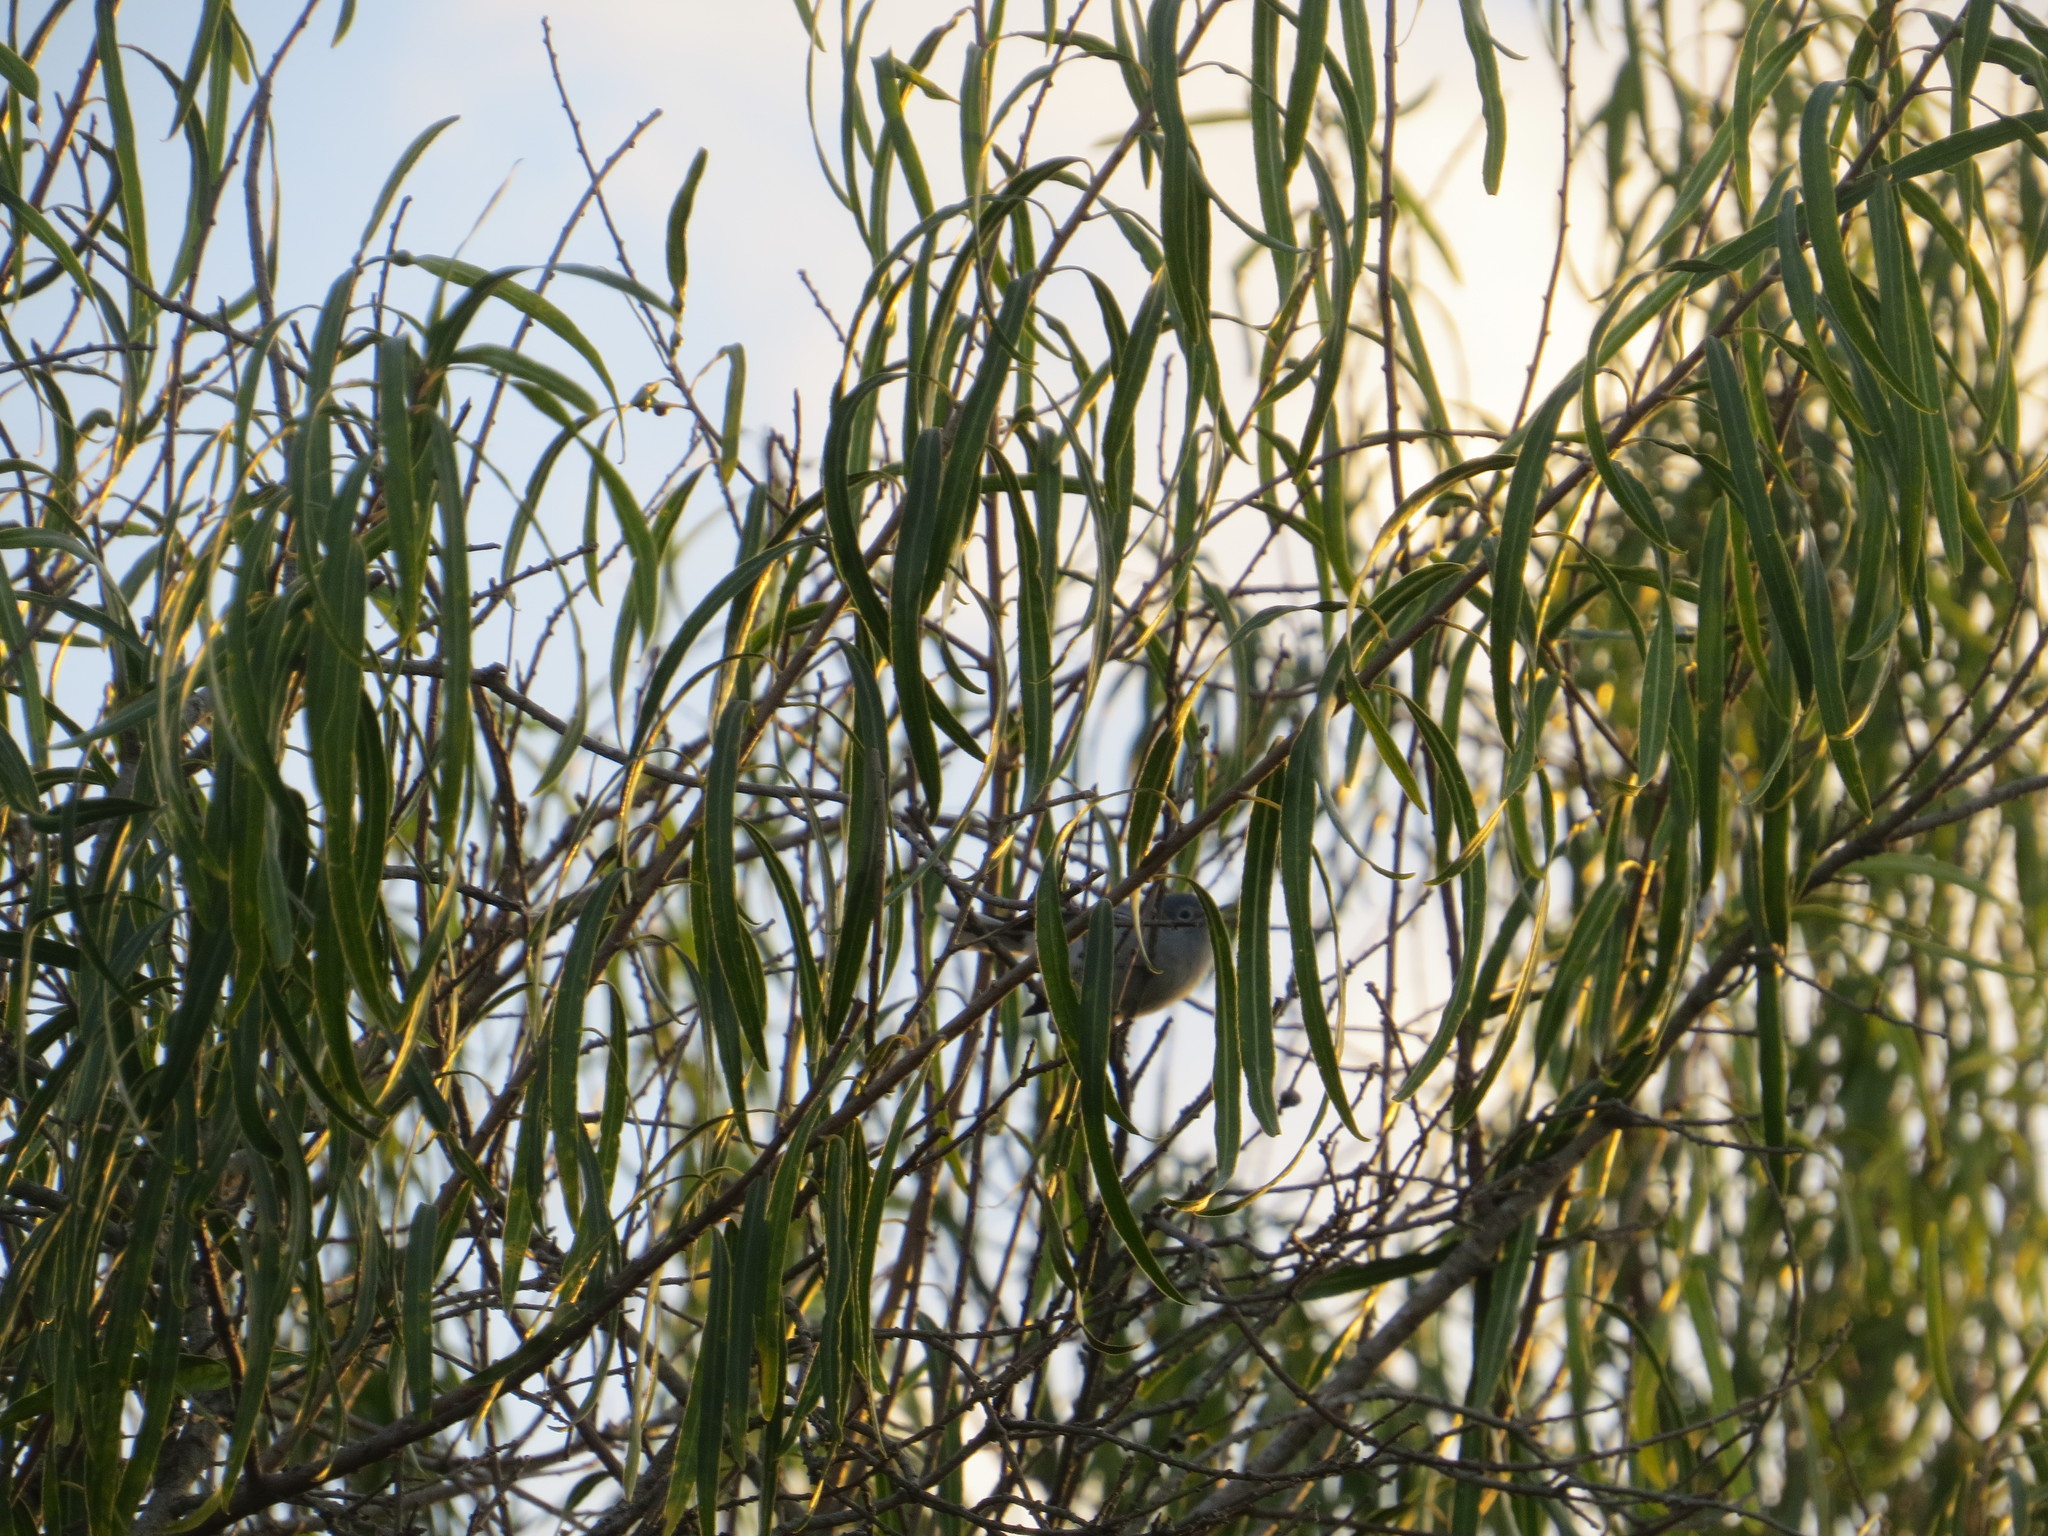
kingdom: Animalia
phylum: Chordata
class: Aves
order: Passeriformes
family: Troglodytidae
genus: Troglodytes
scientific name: Troglodytes aedon
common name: House wren
